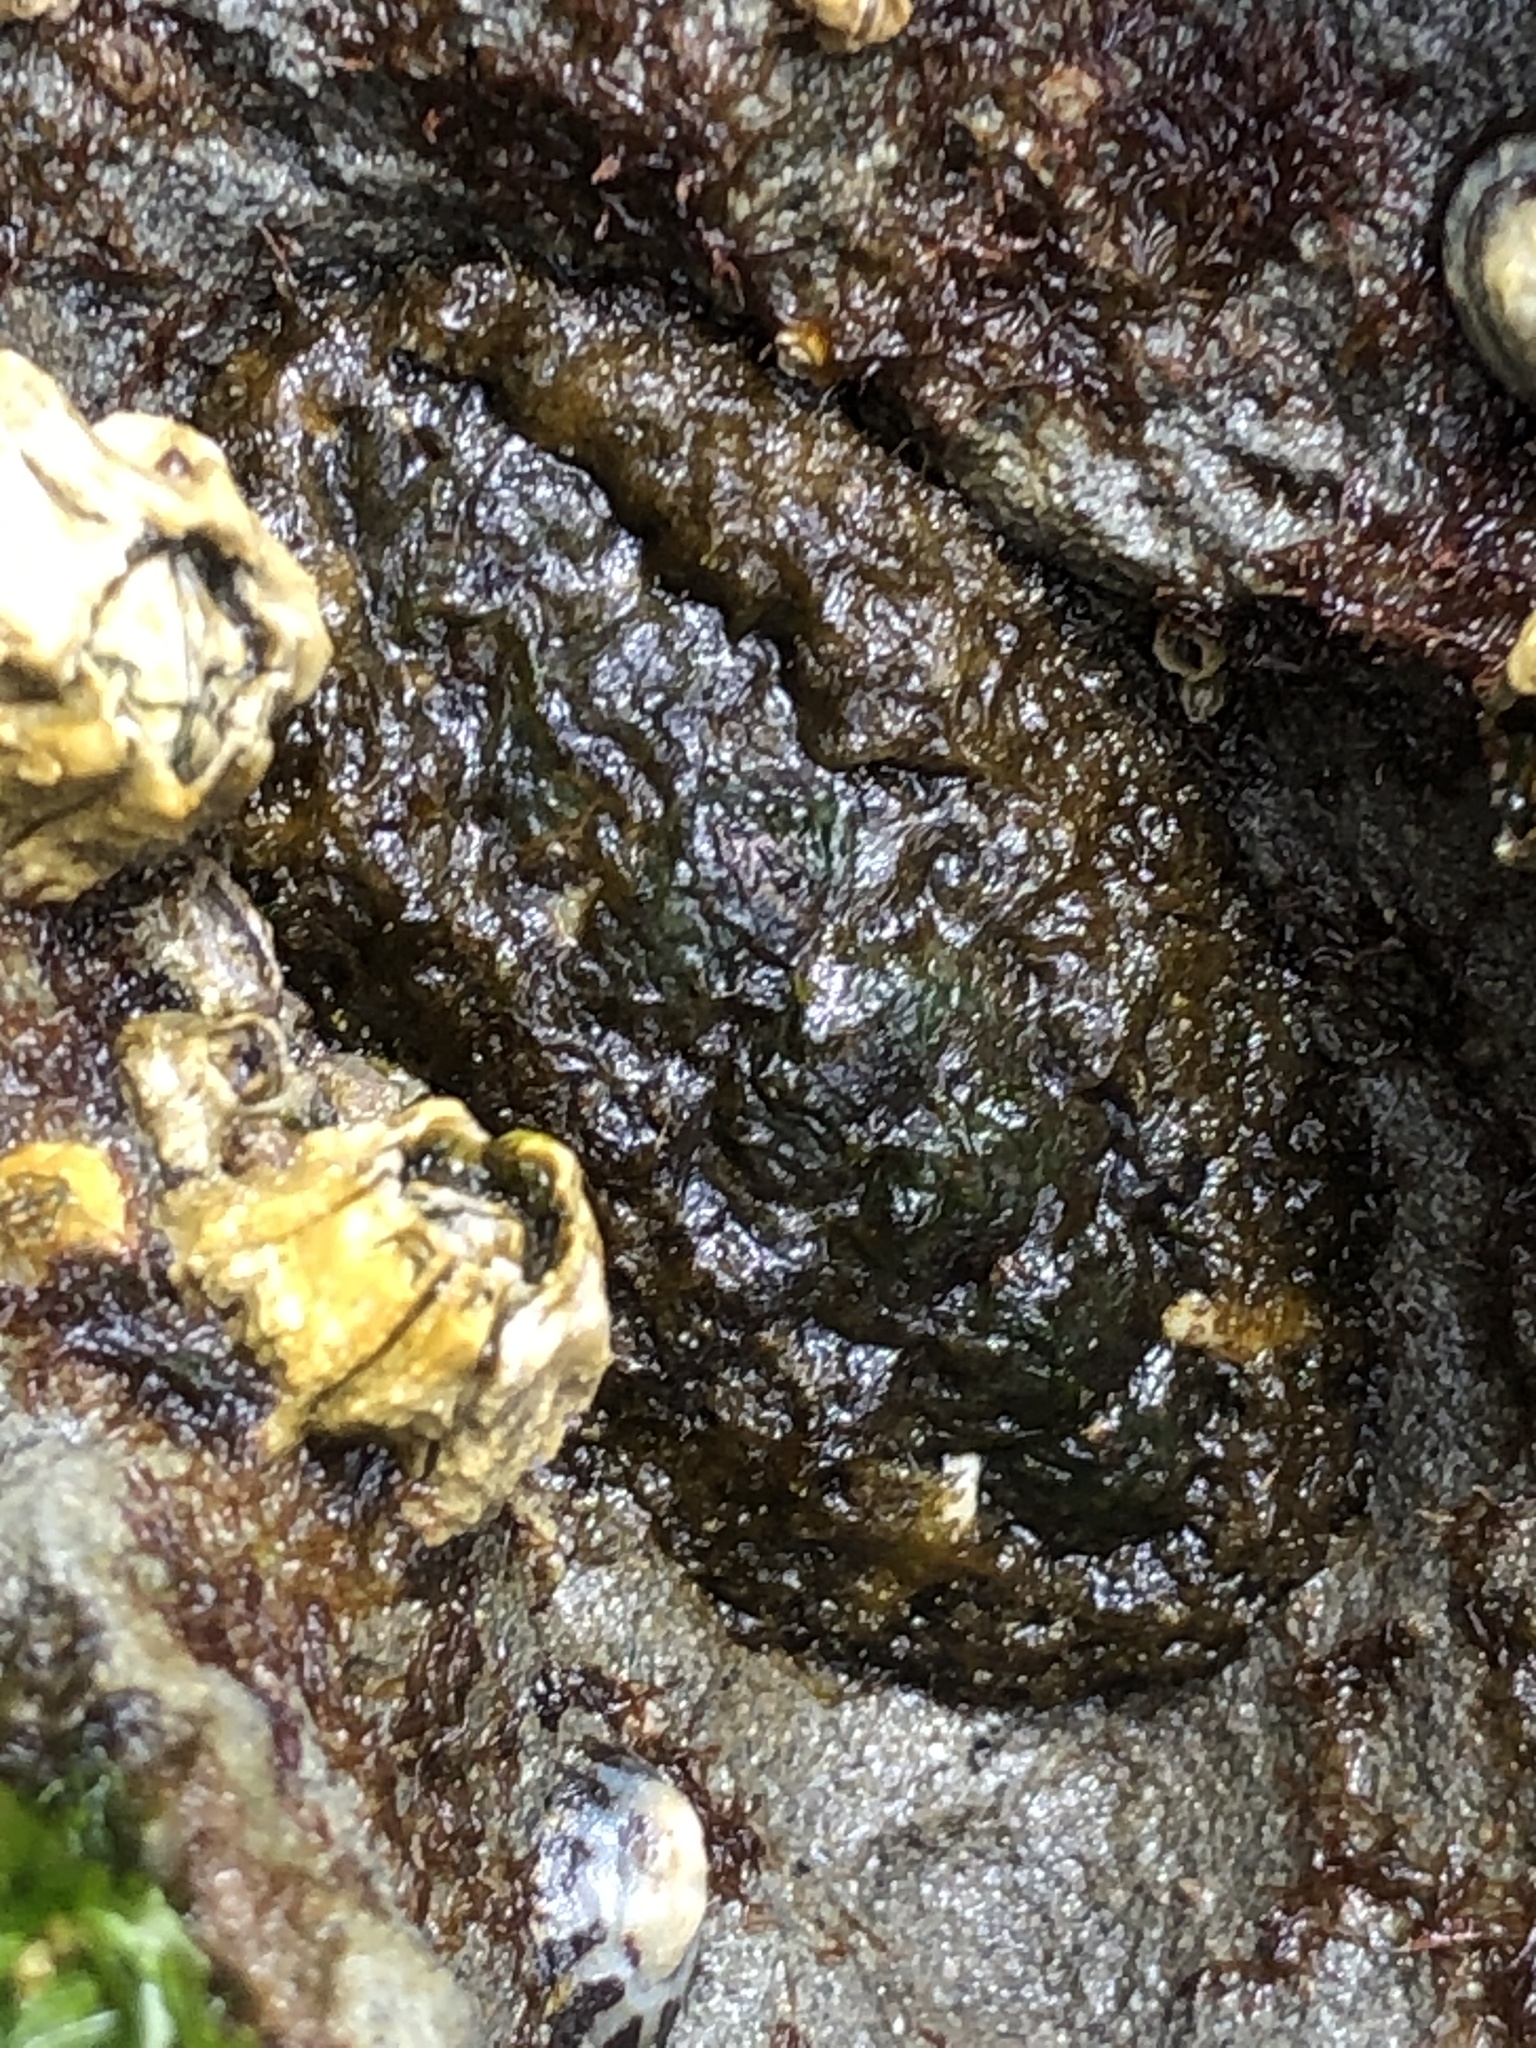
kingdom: Animalia
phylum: Mollusca
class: Polyplacophora
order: Chitonida
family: Tonicellidae
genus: Nuttallina
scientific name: Nuttallina californica
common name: California nuttall chiton
